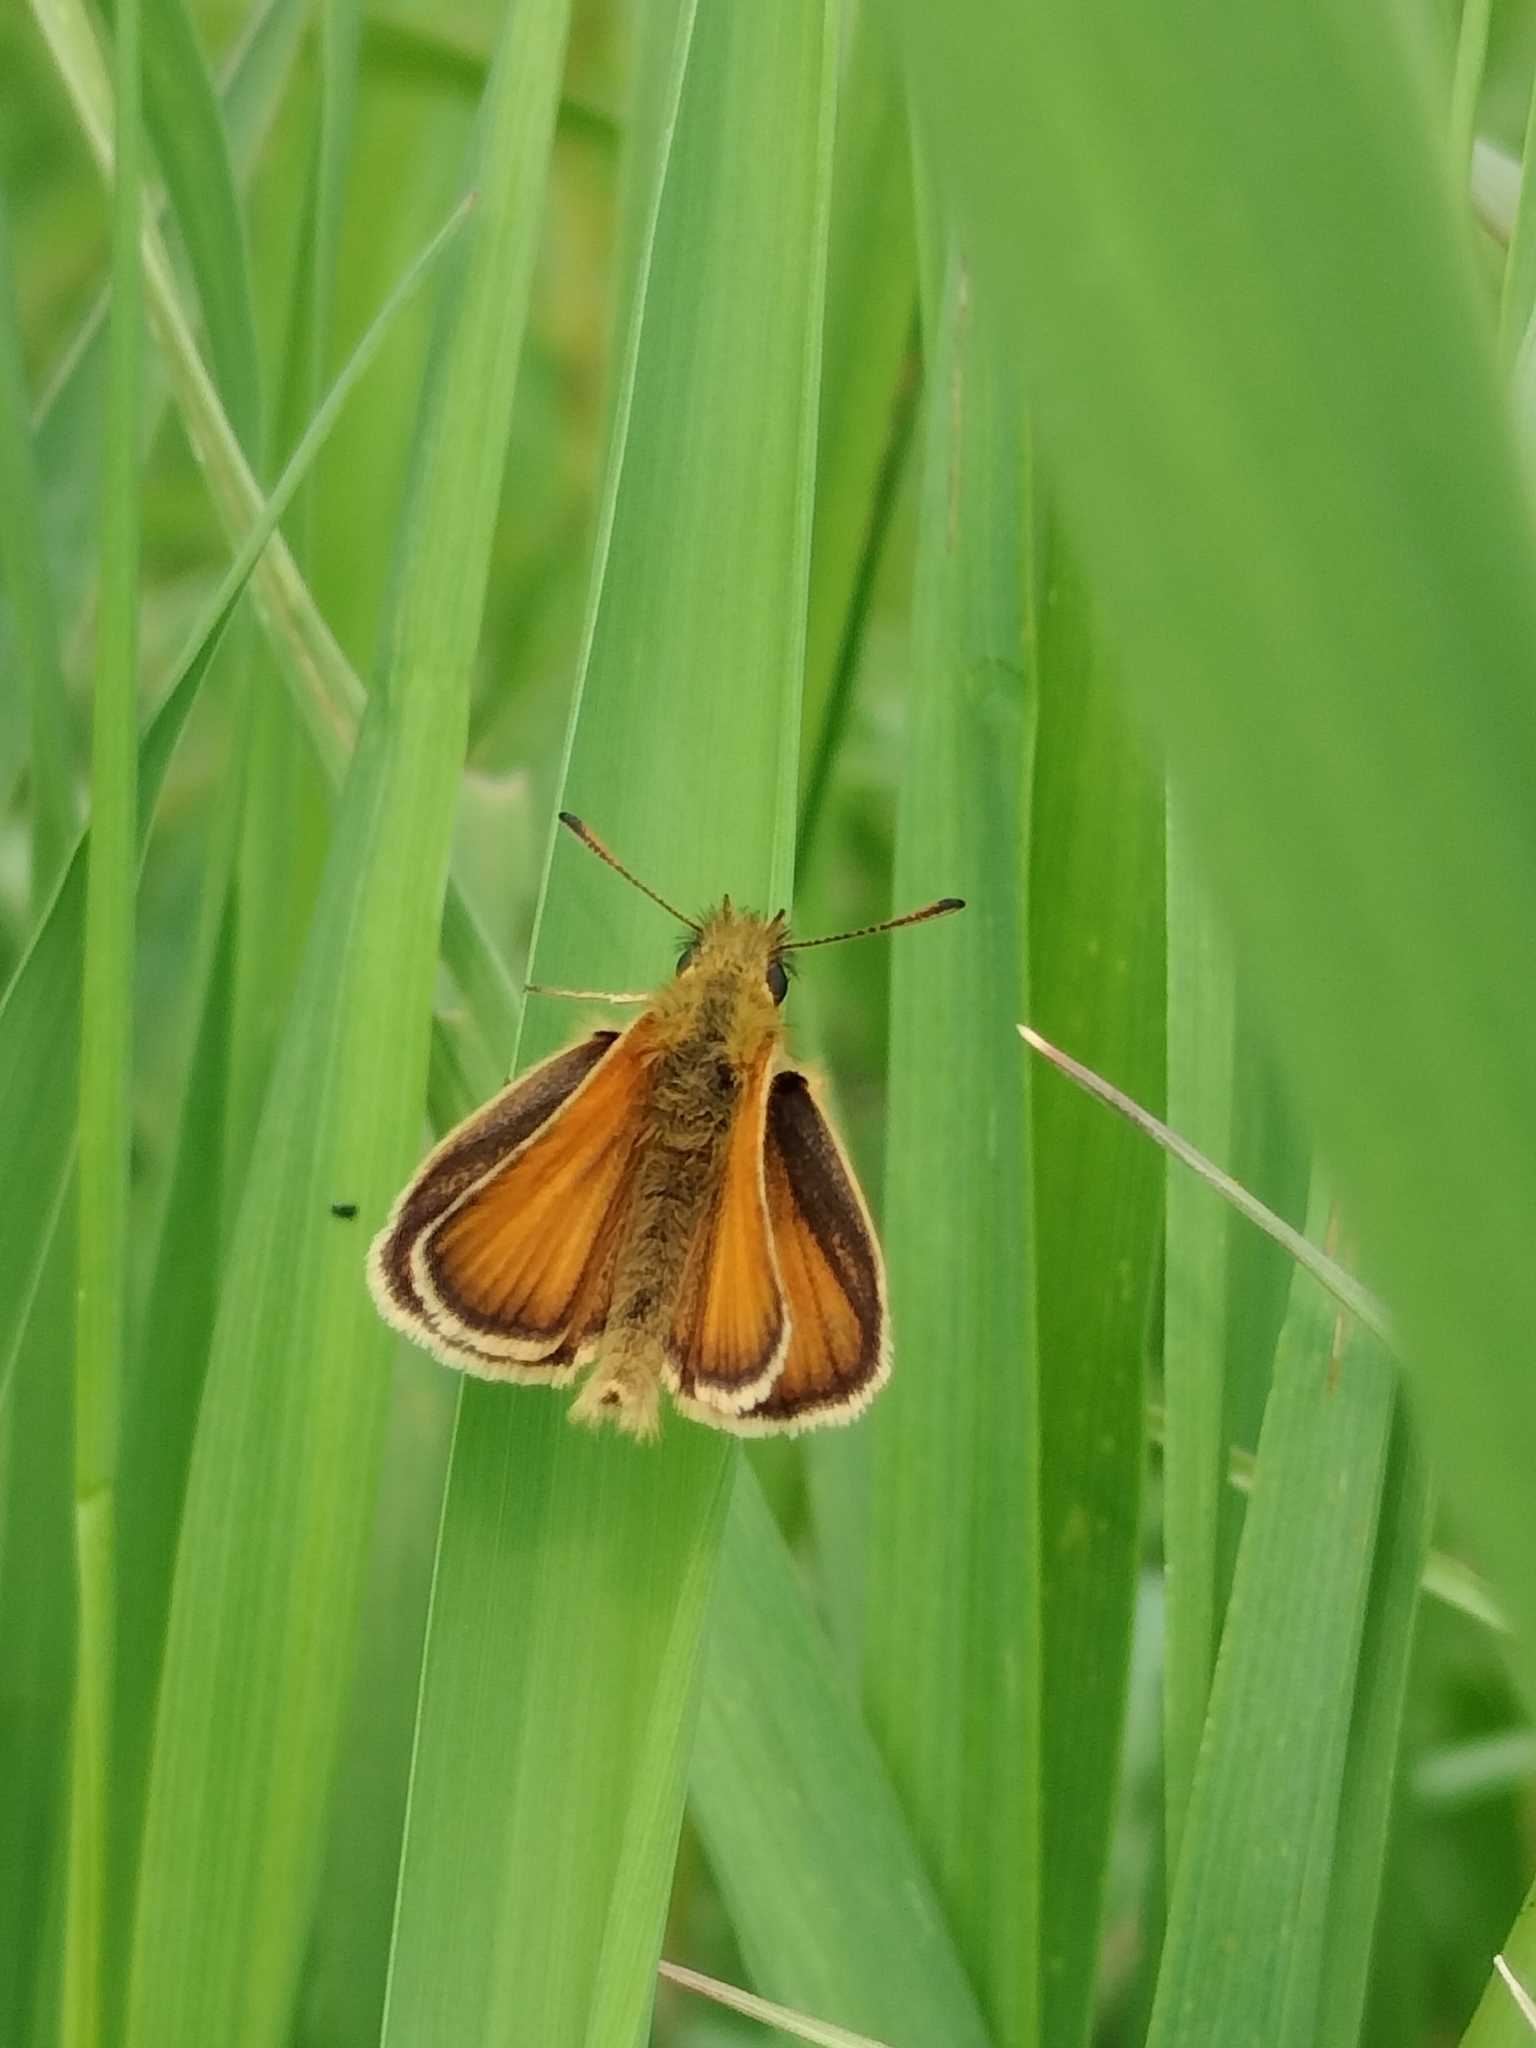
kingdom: Animalia
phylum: Arthropoda
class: Insecta
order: Lepidoptera
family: Hesperiidae
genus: Thymelicus
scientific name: Thymelicus lineola
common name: Essex skipper
